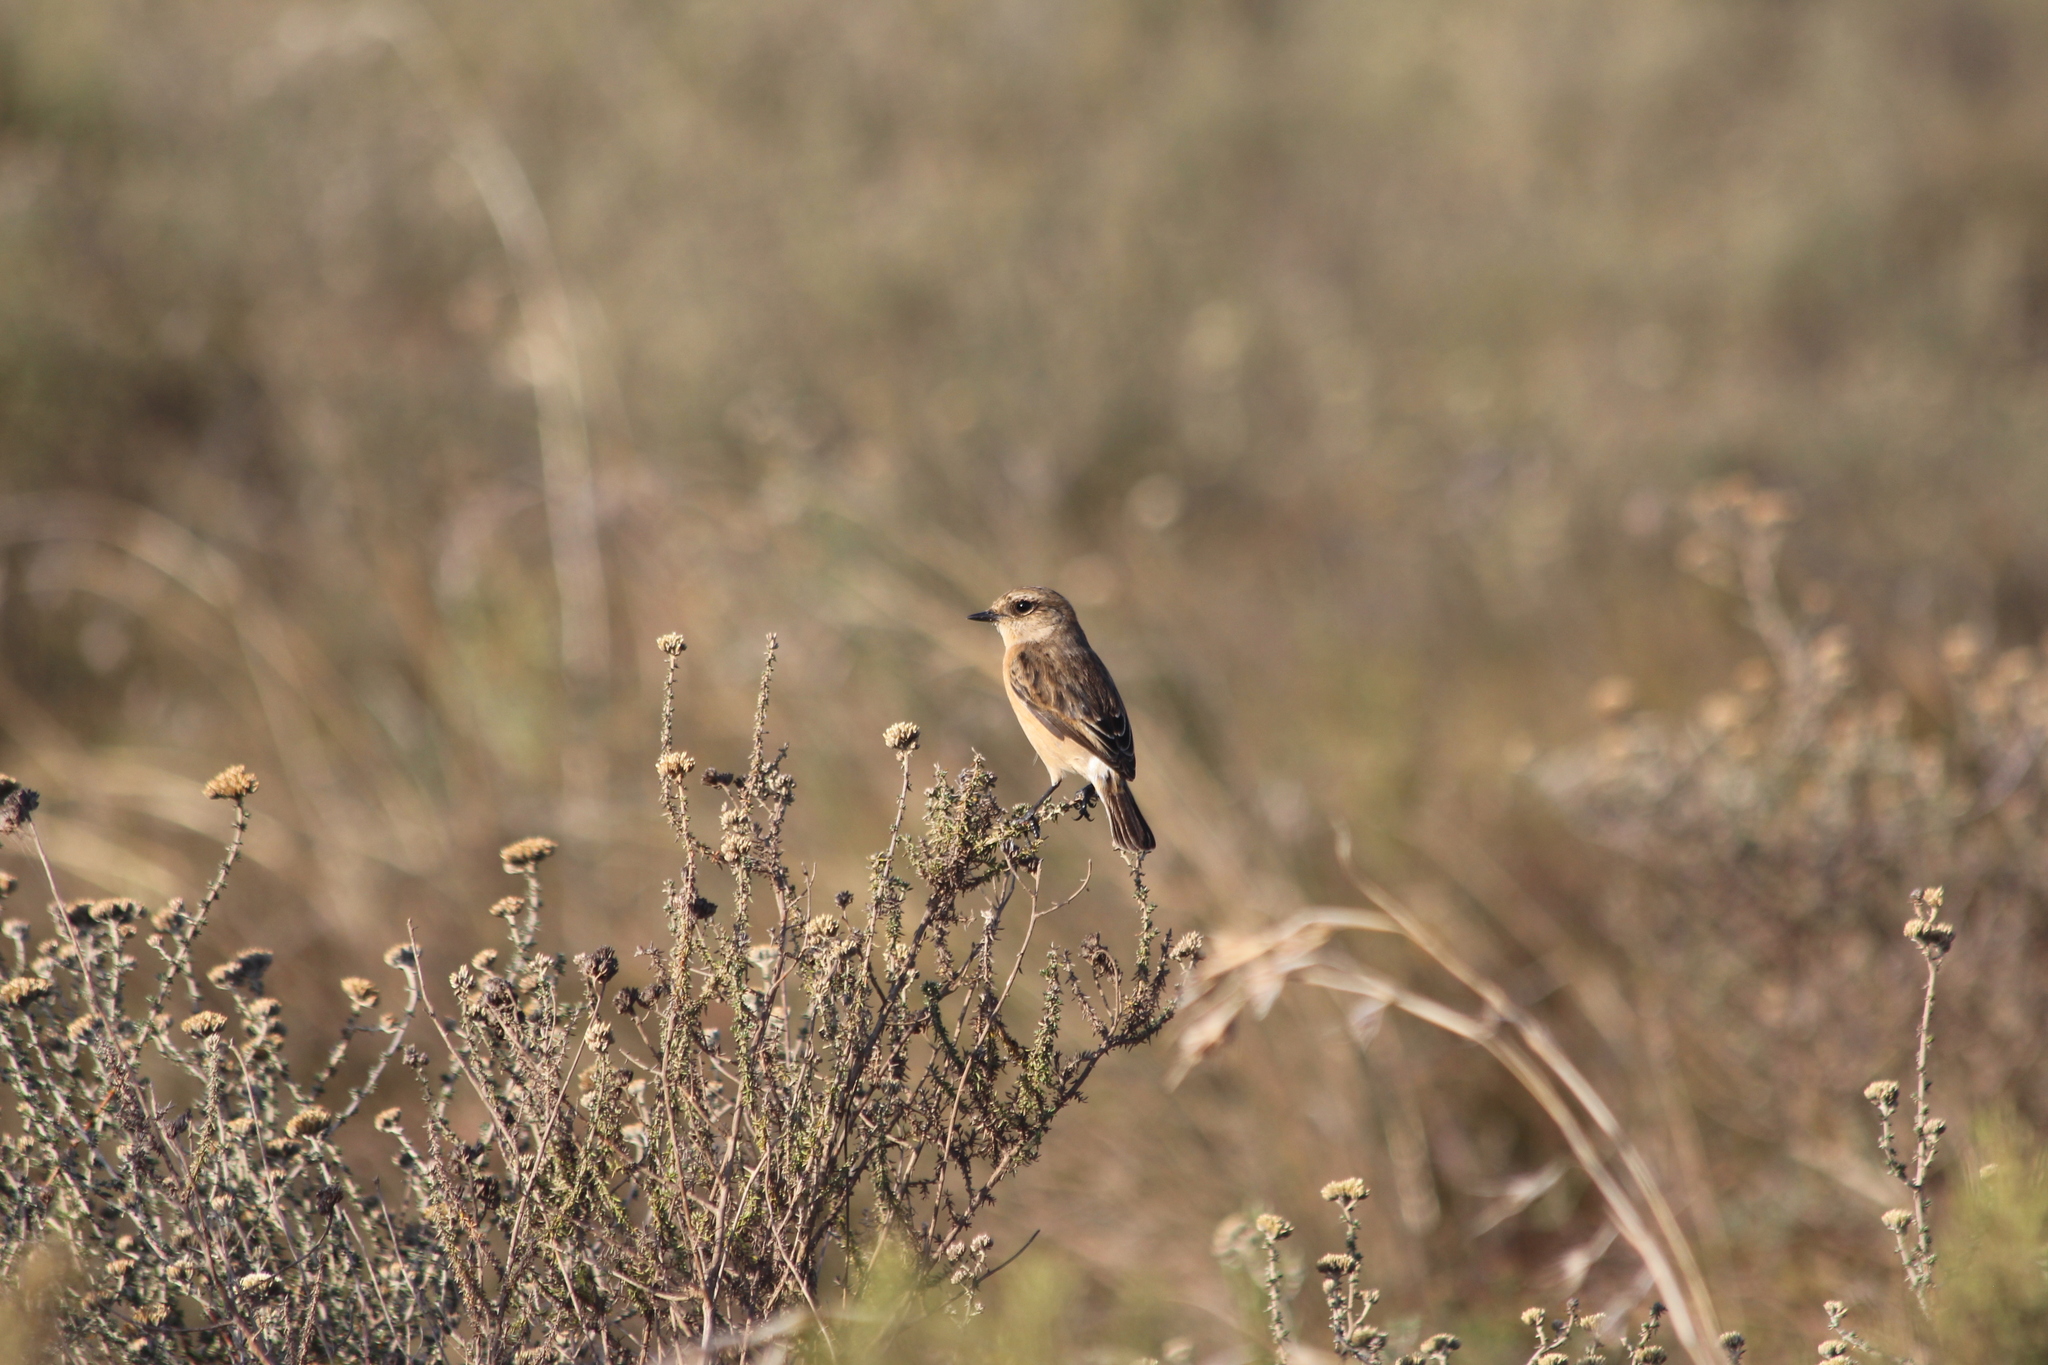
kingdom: Animalia
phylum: Chordata
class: Aves
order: Passeriformes
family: Muscicapidae
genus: Saxicola
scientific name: Saxicola torquatus
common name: African stonechat
